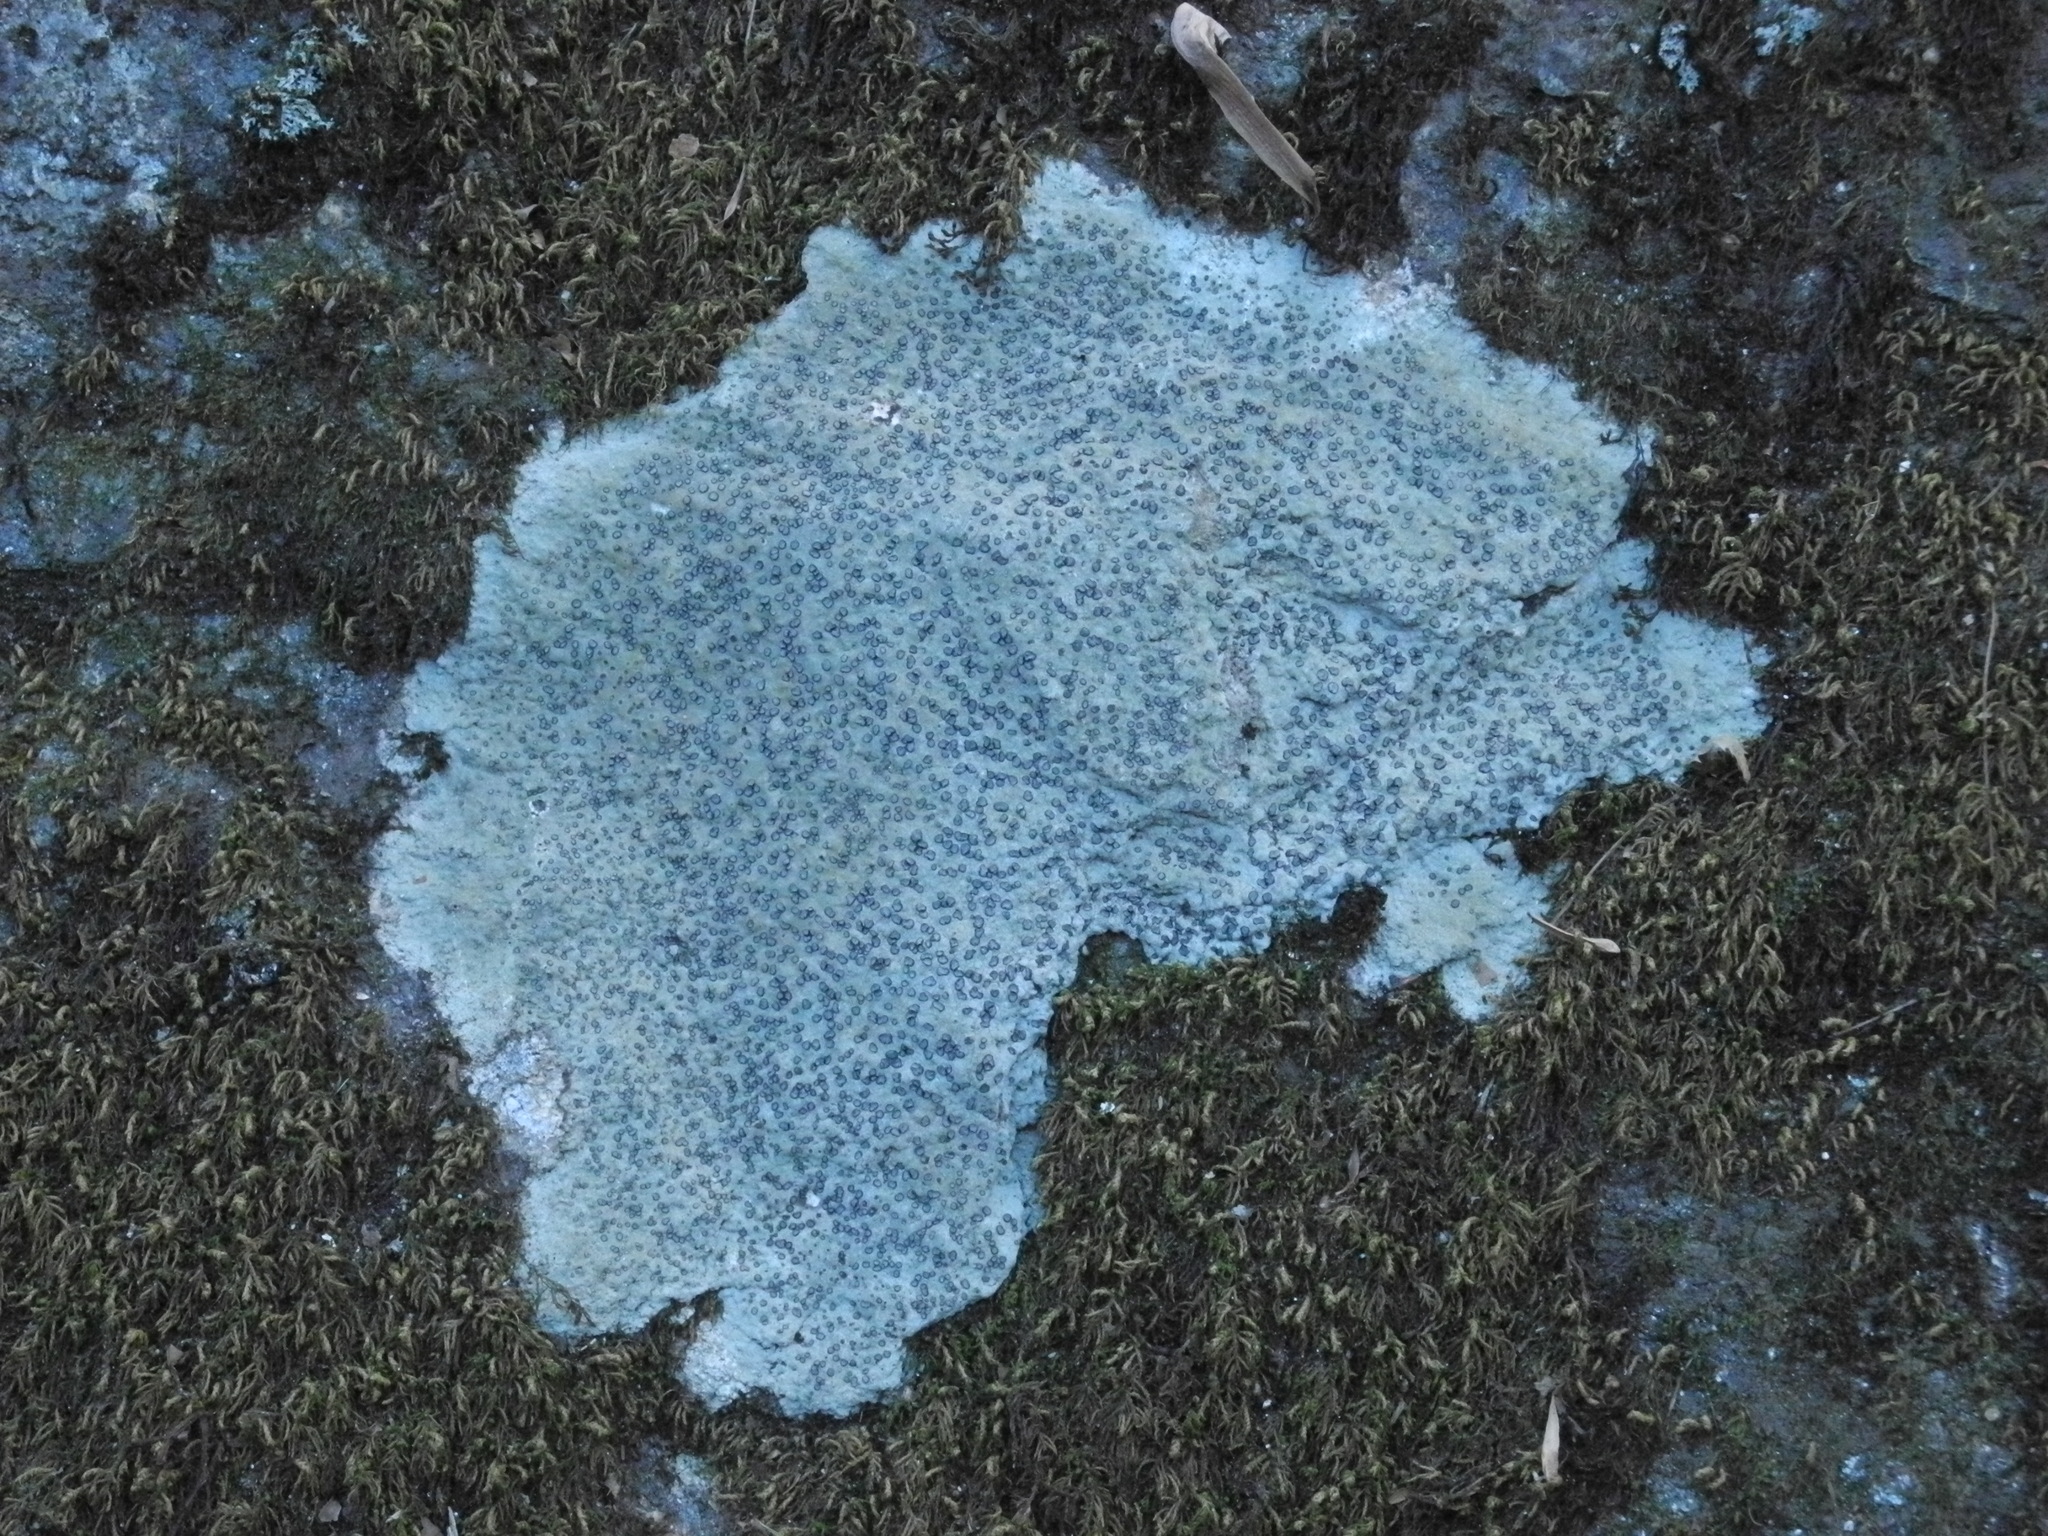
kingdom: Fungi
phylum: Ascomycota
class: Lecanoromycetes
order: Lecideales
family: Lecideaceae
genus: Porpidia
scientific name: Porpidia albocaerulescens
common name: Smokey-eyed boulder lichen
